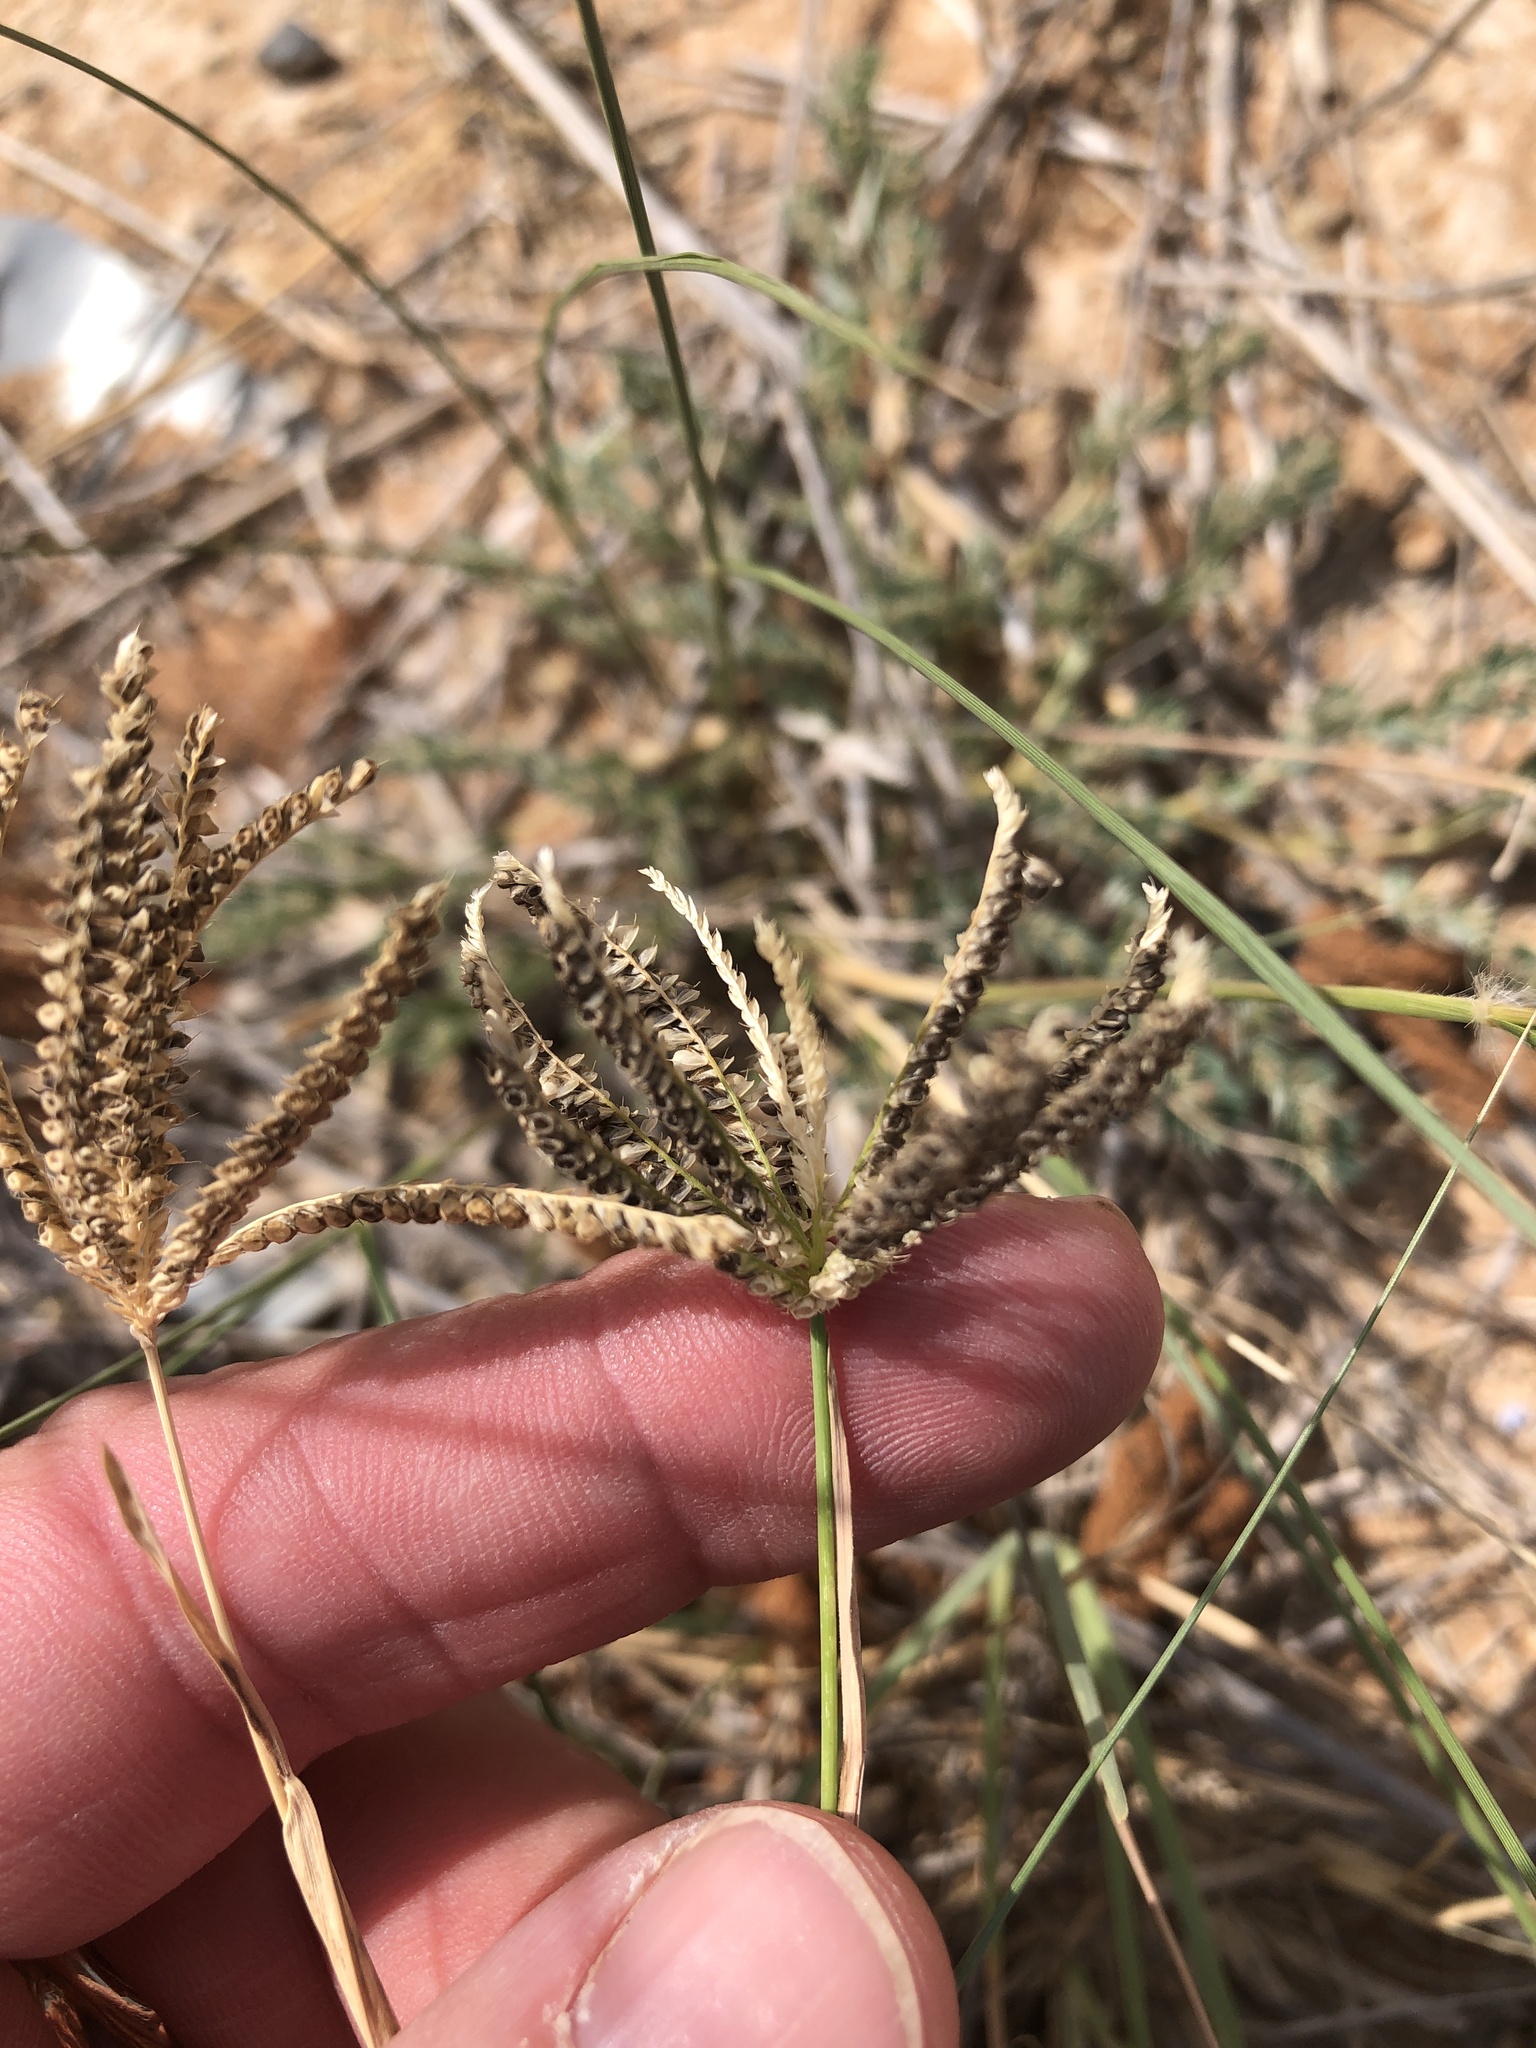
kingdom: Plantae
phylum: Tracheophyta
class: Liliopsida
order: Poales
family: Poaceae
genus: Chloris
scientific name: Chloris cucullata
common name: Hooded windmill grass
